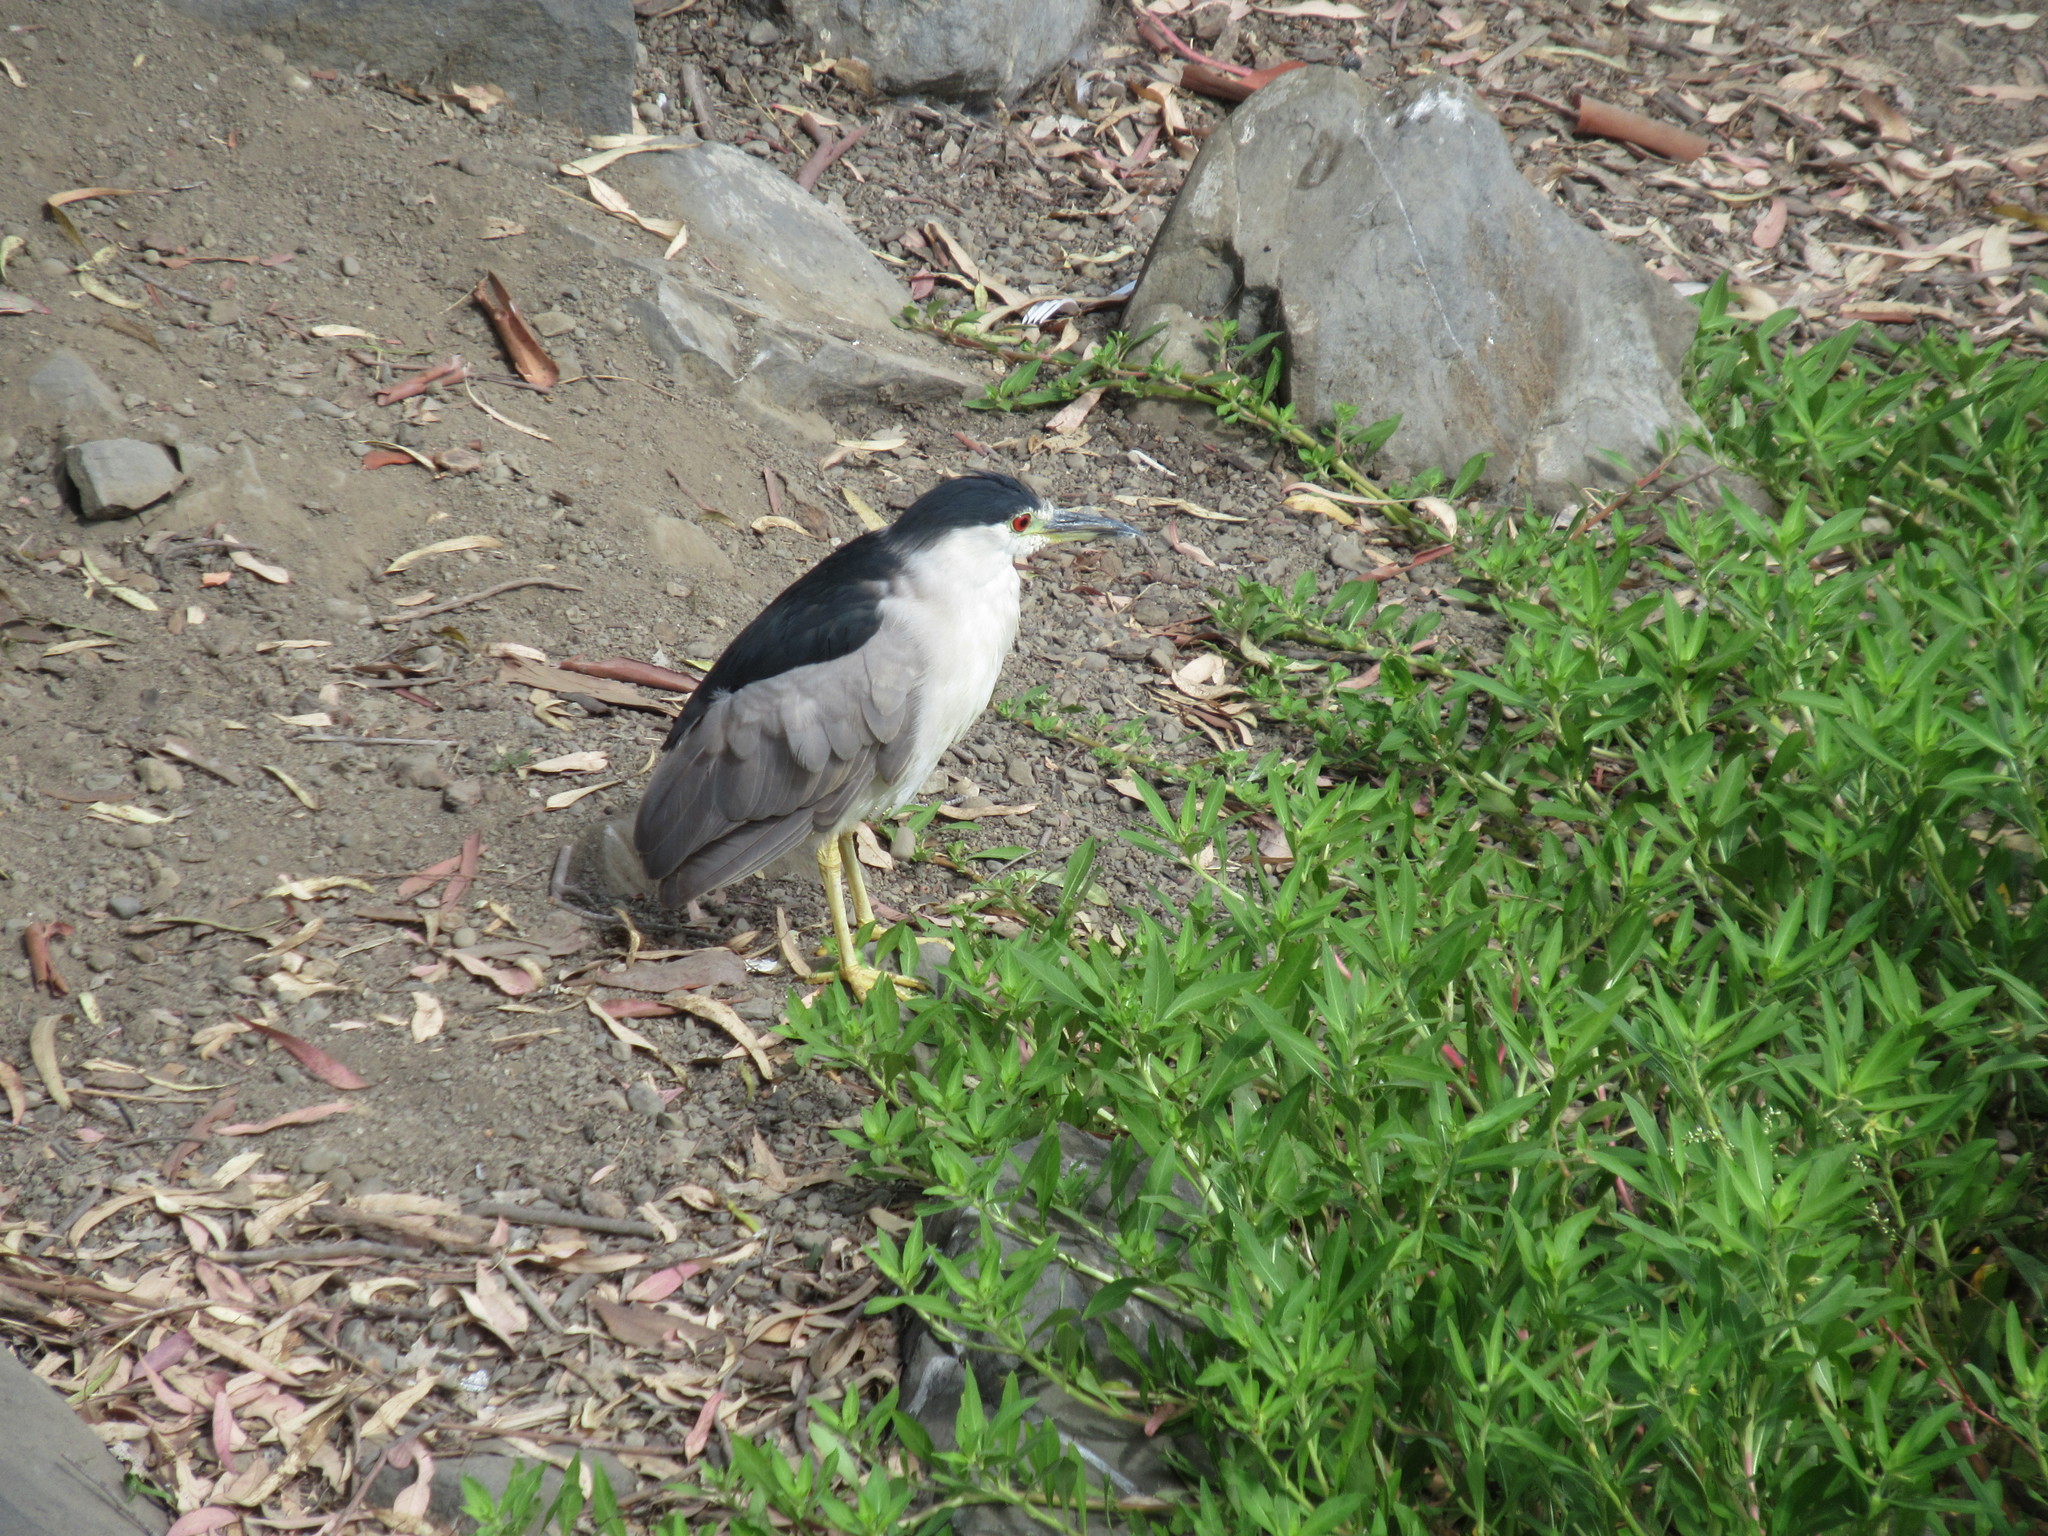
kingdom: Animalia
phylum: Chordata
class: Aves
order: Pelecaniformes
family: Ardeidae
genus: Nycticorax
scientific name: Nycticorax nycticorax
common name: Black-crowned night heron
